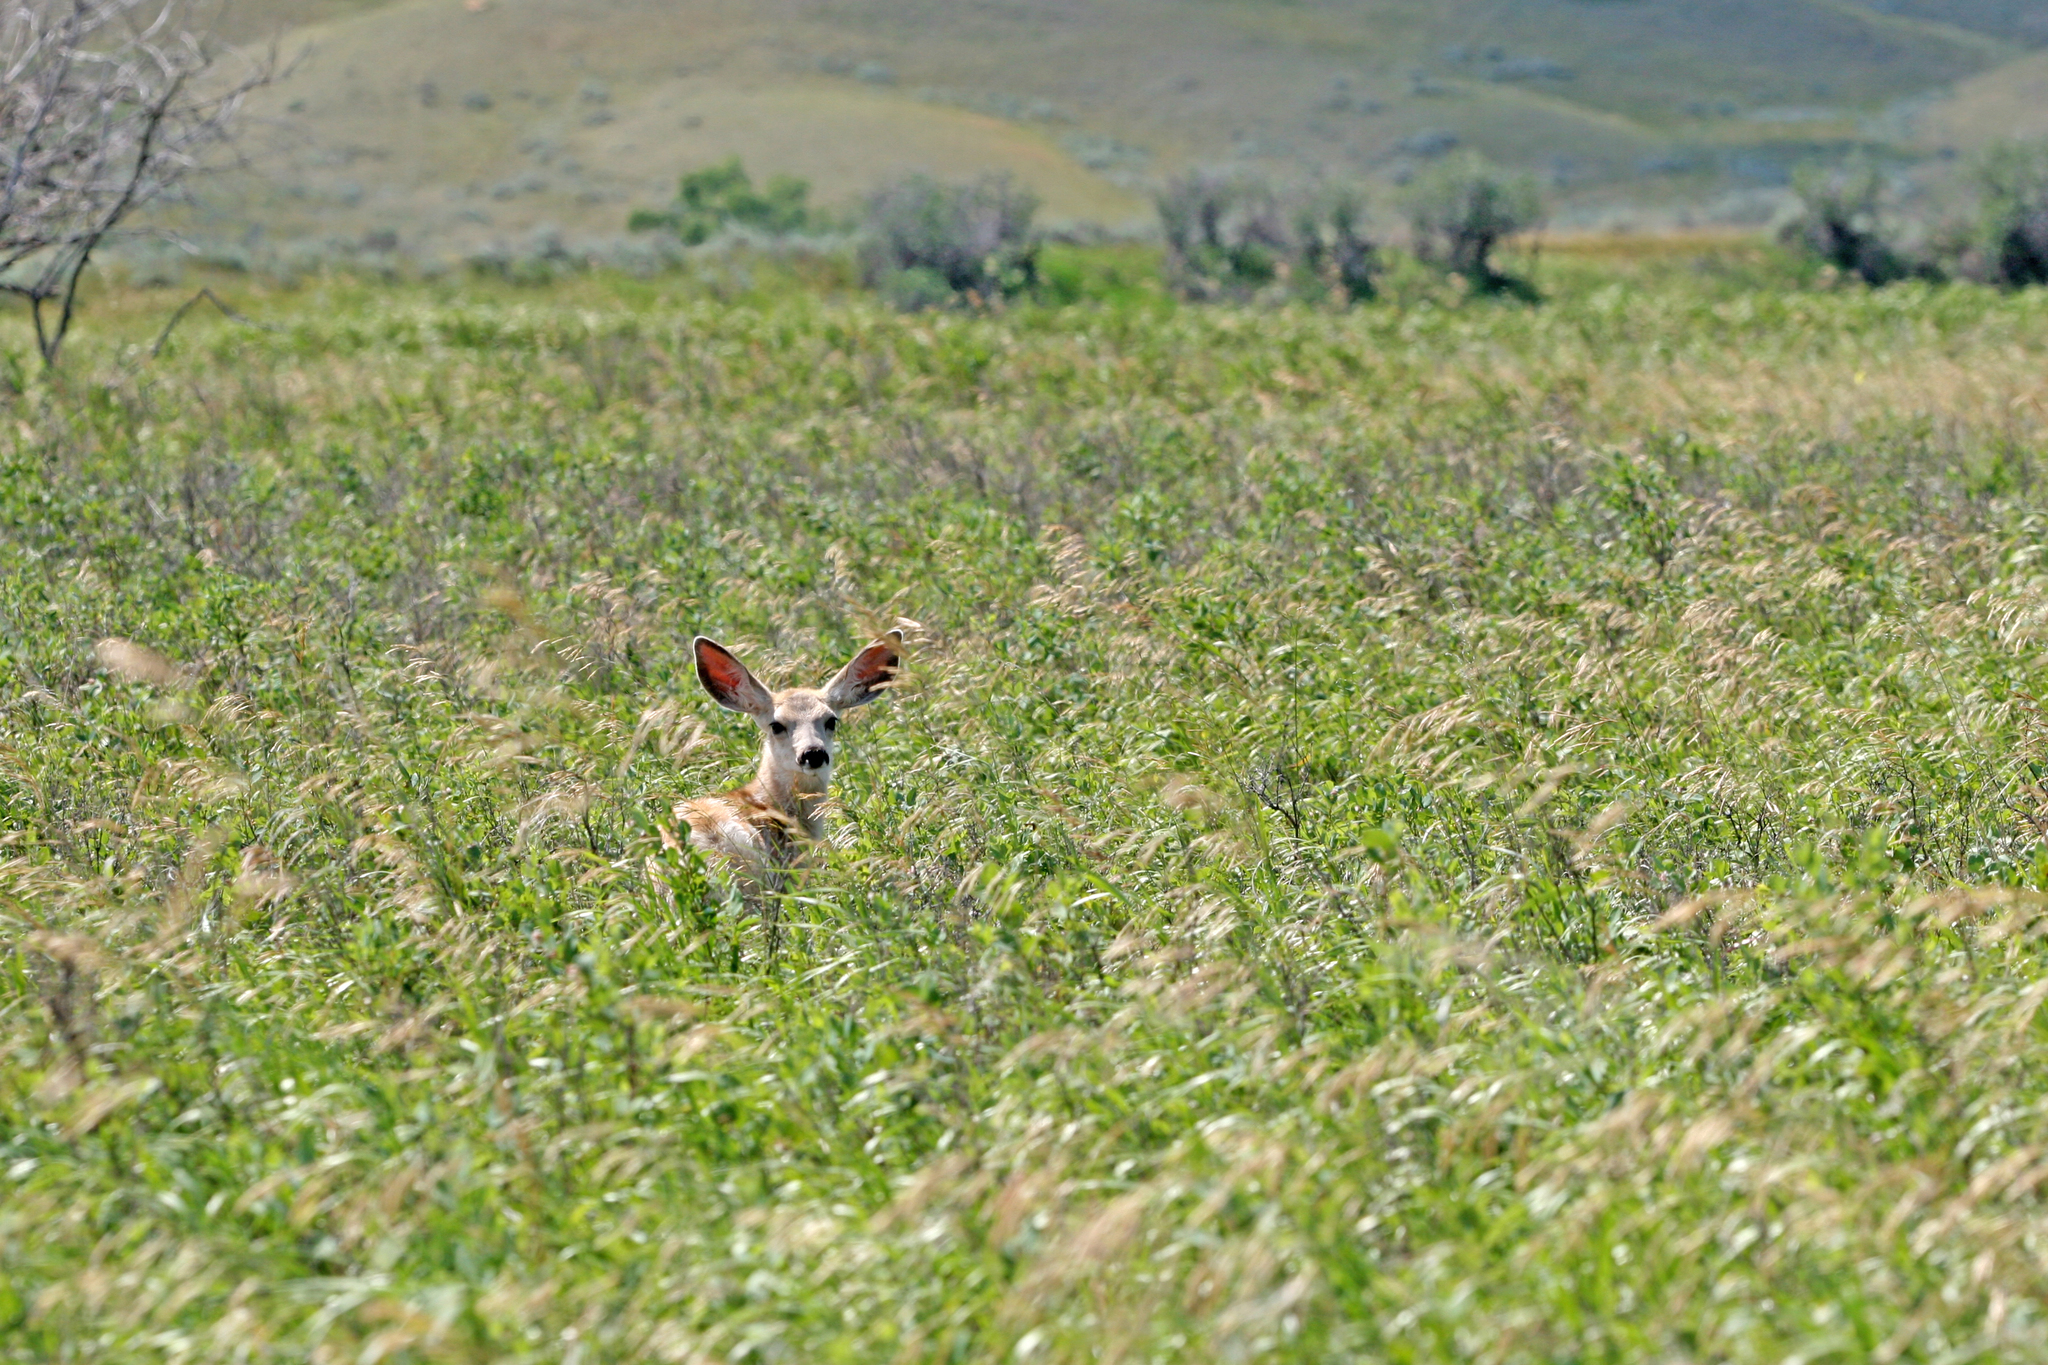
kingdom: Animalia
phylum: Chordata
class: Mammalia
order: Artiodactyla
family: Cervidae
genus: Odocoileus
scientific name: Odocoileus hemionus
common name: Mule deer
